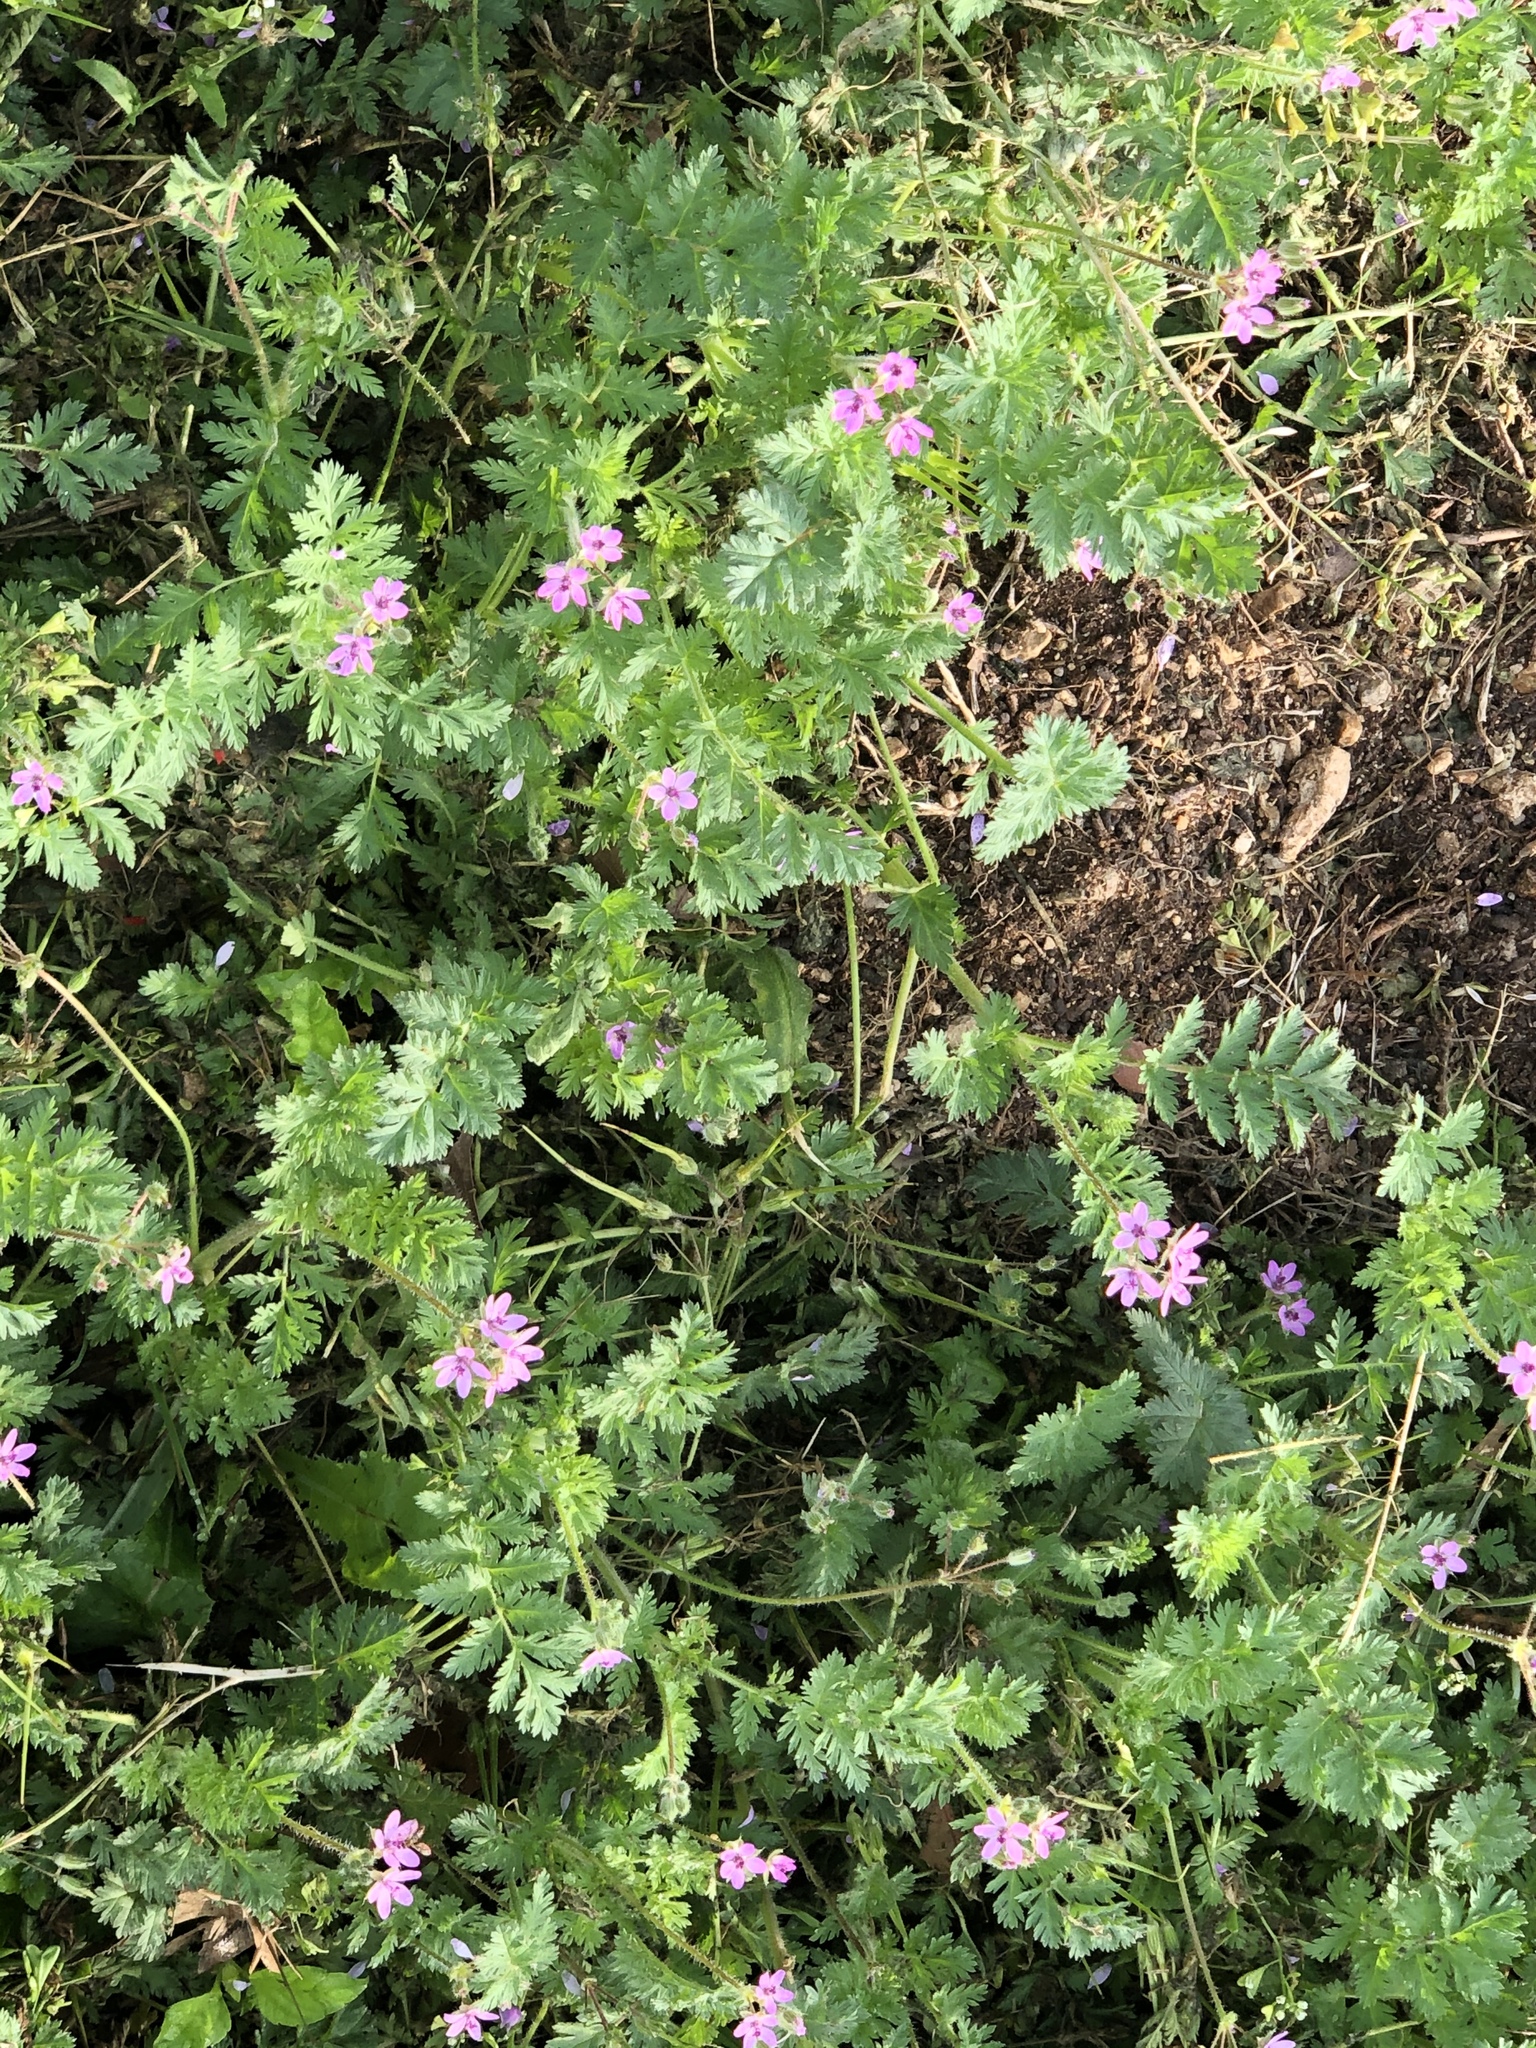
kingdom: Plantae
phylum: Tracheophyta
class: Magnoliopsida
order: Geraniales
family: Geraniaceae
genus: Erodium
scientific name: Erodium cicutarium
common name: Common stork's-bill
